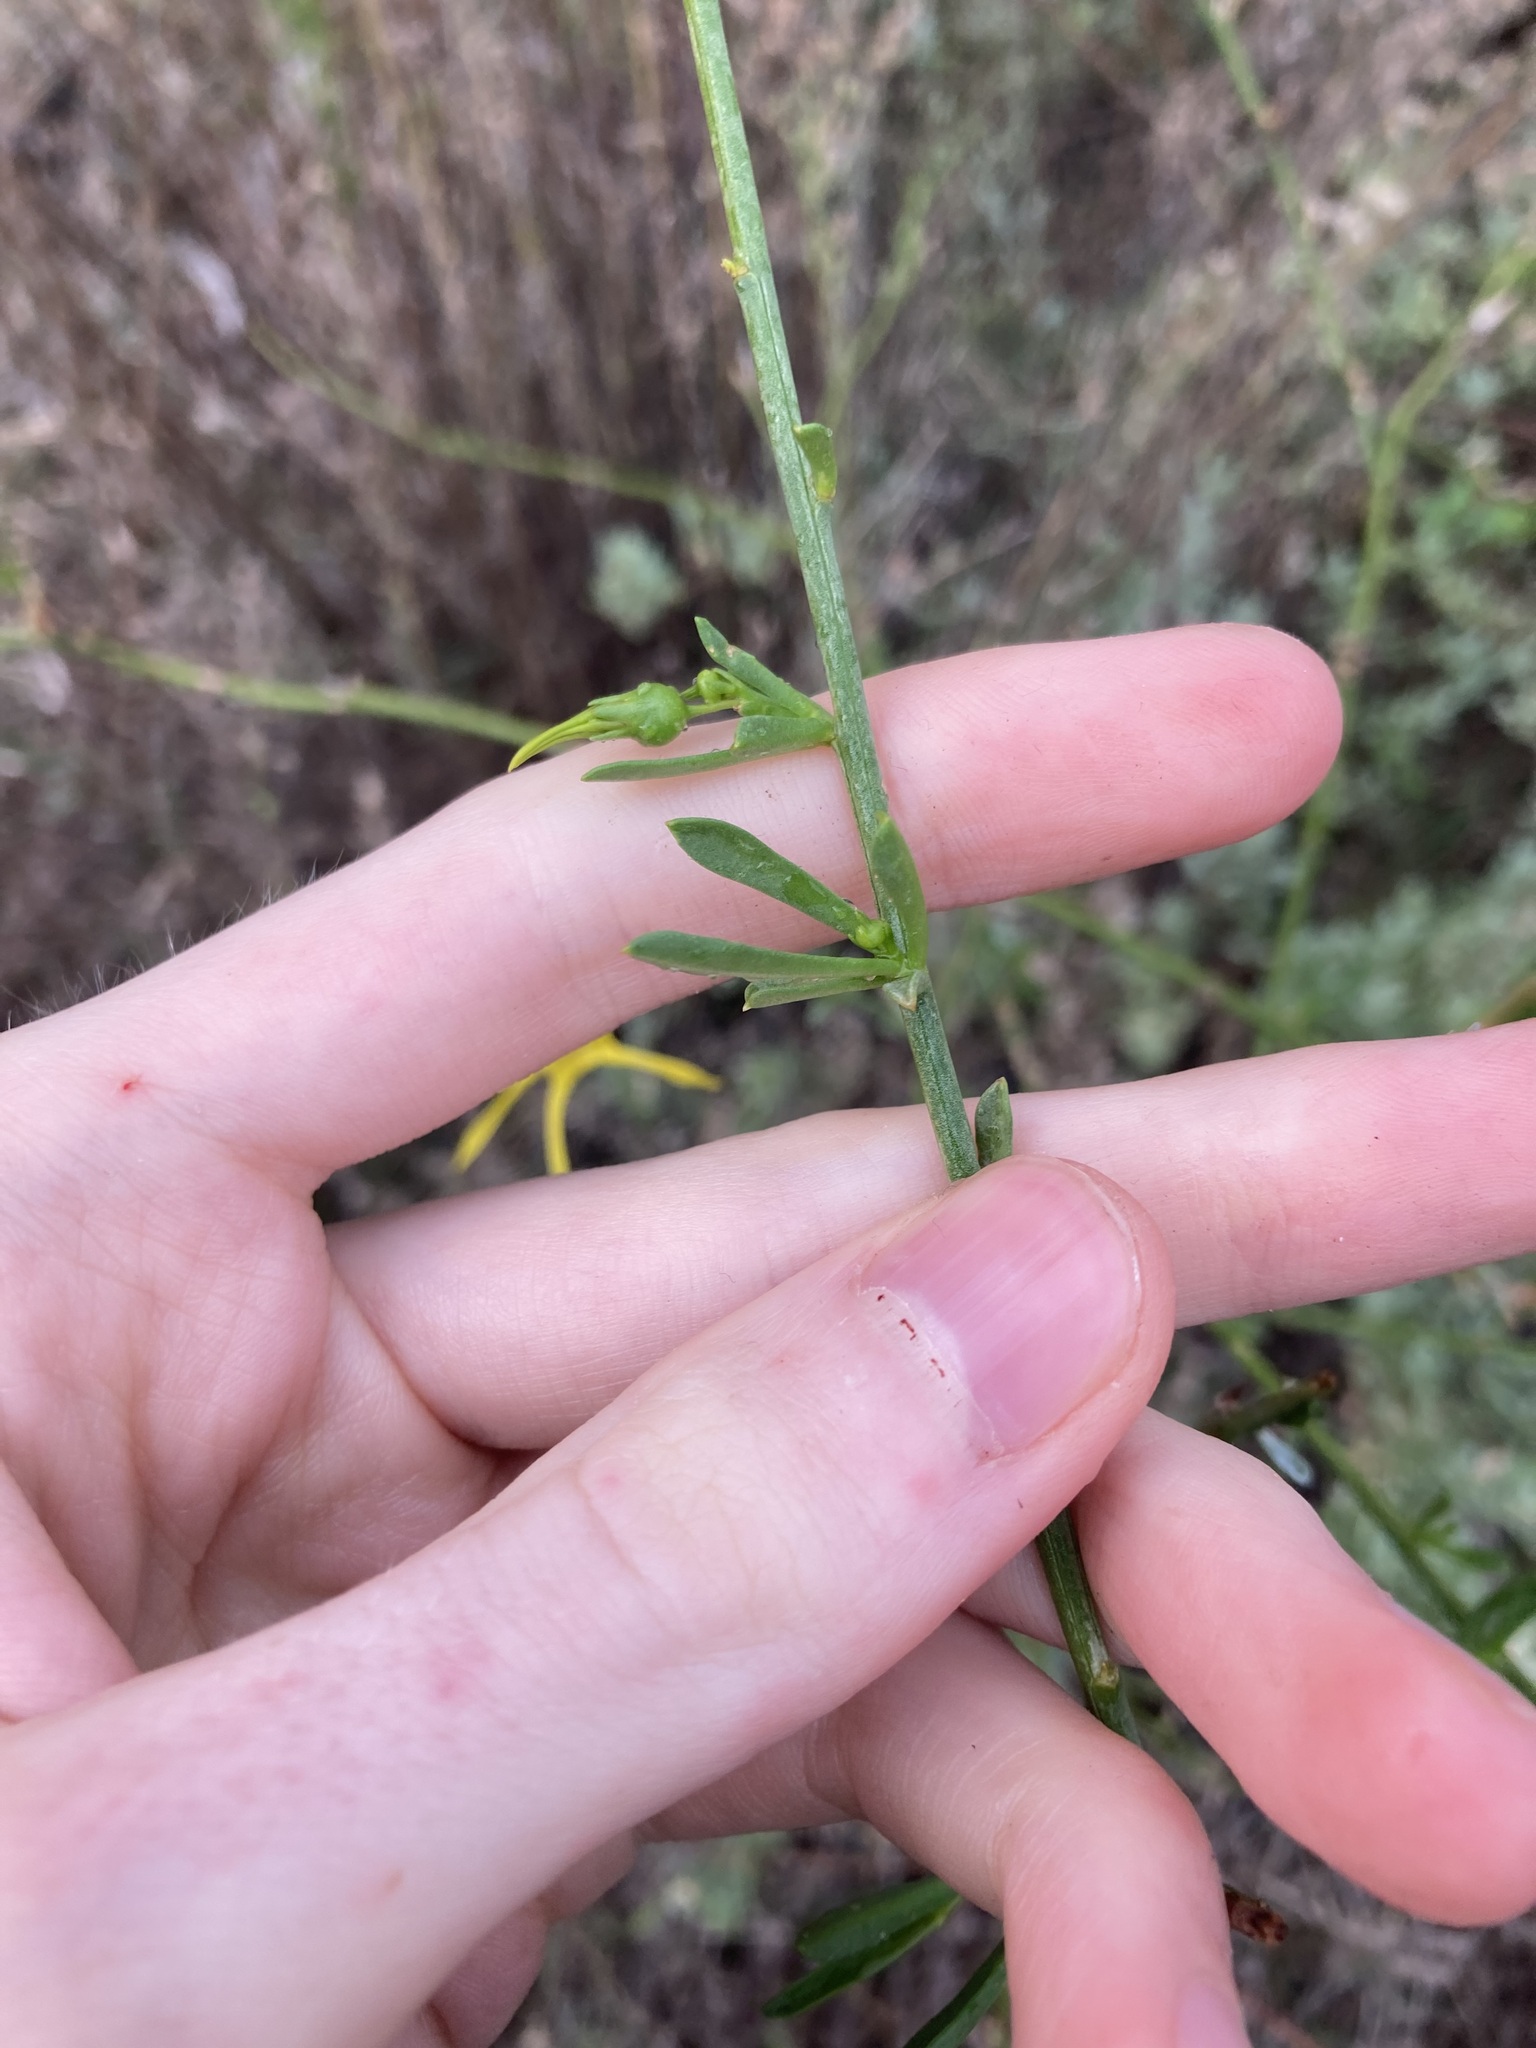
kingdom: Plantae
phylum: Tracheophyta
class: Magnoliopsida
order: Solanales
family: Solanaceae
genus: Anthocercis
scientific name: Anthocercis littorea
